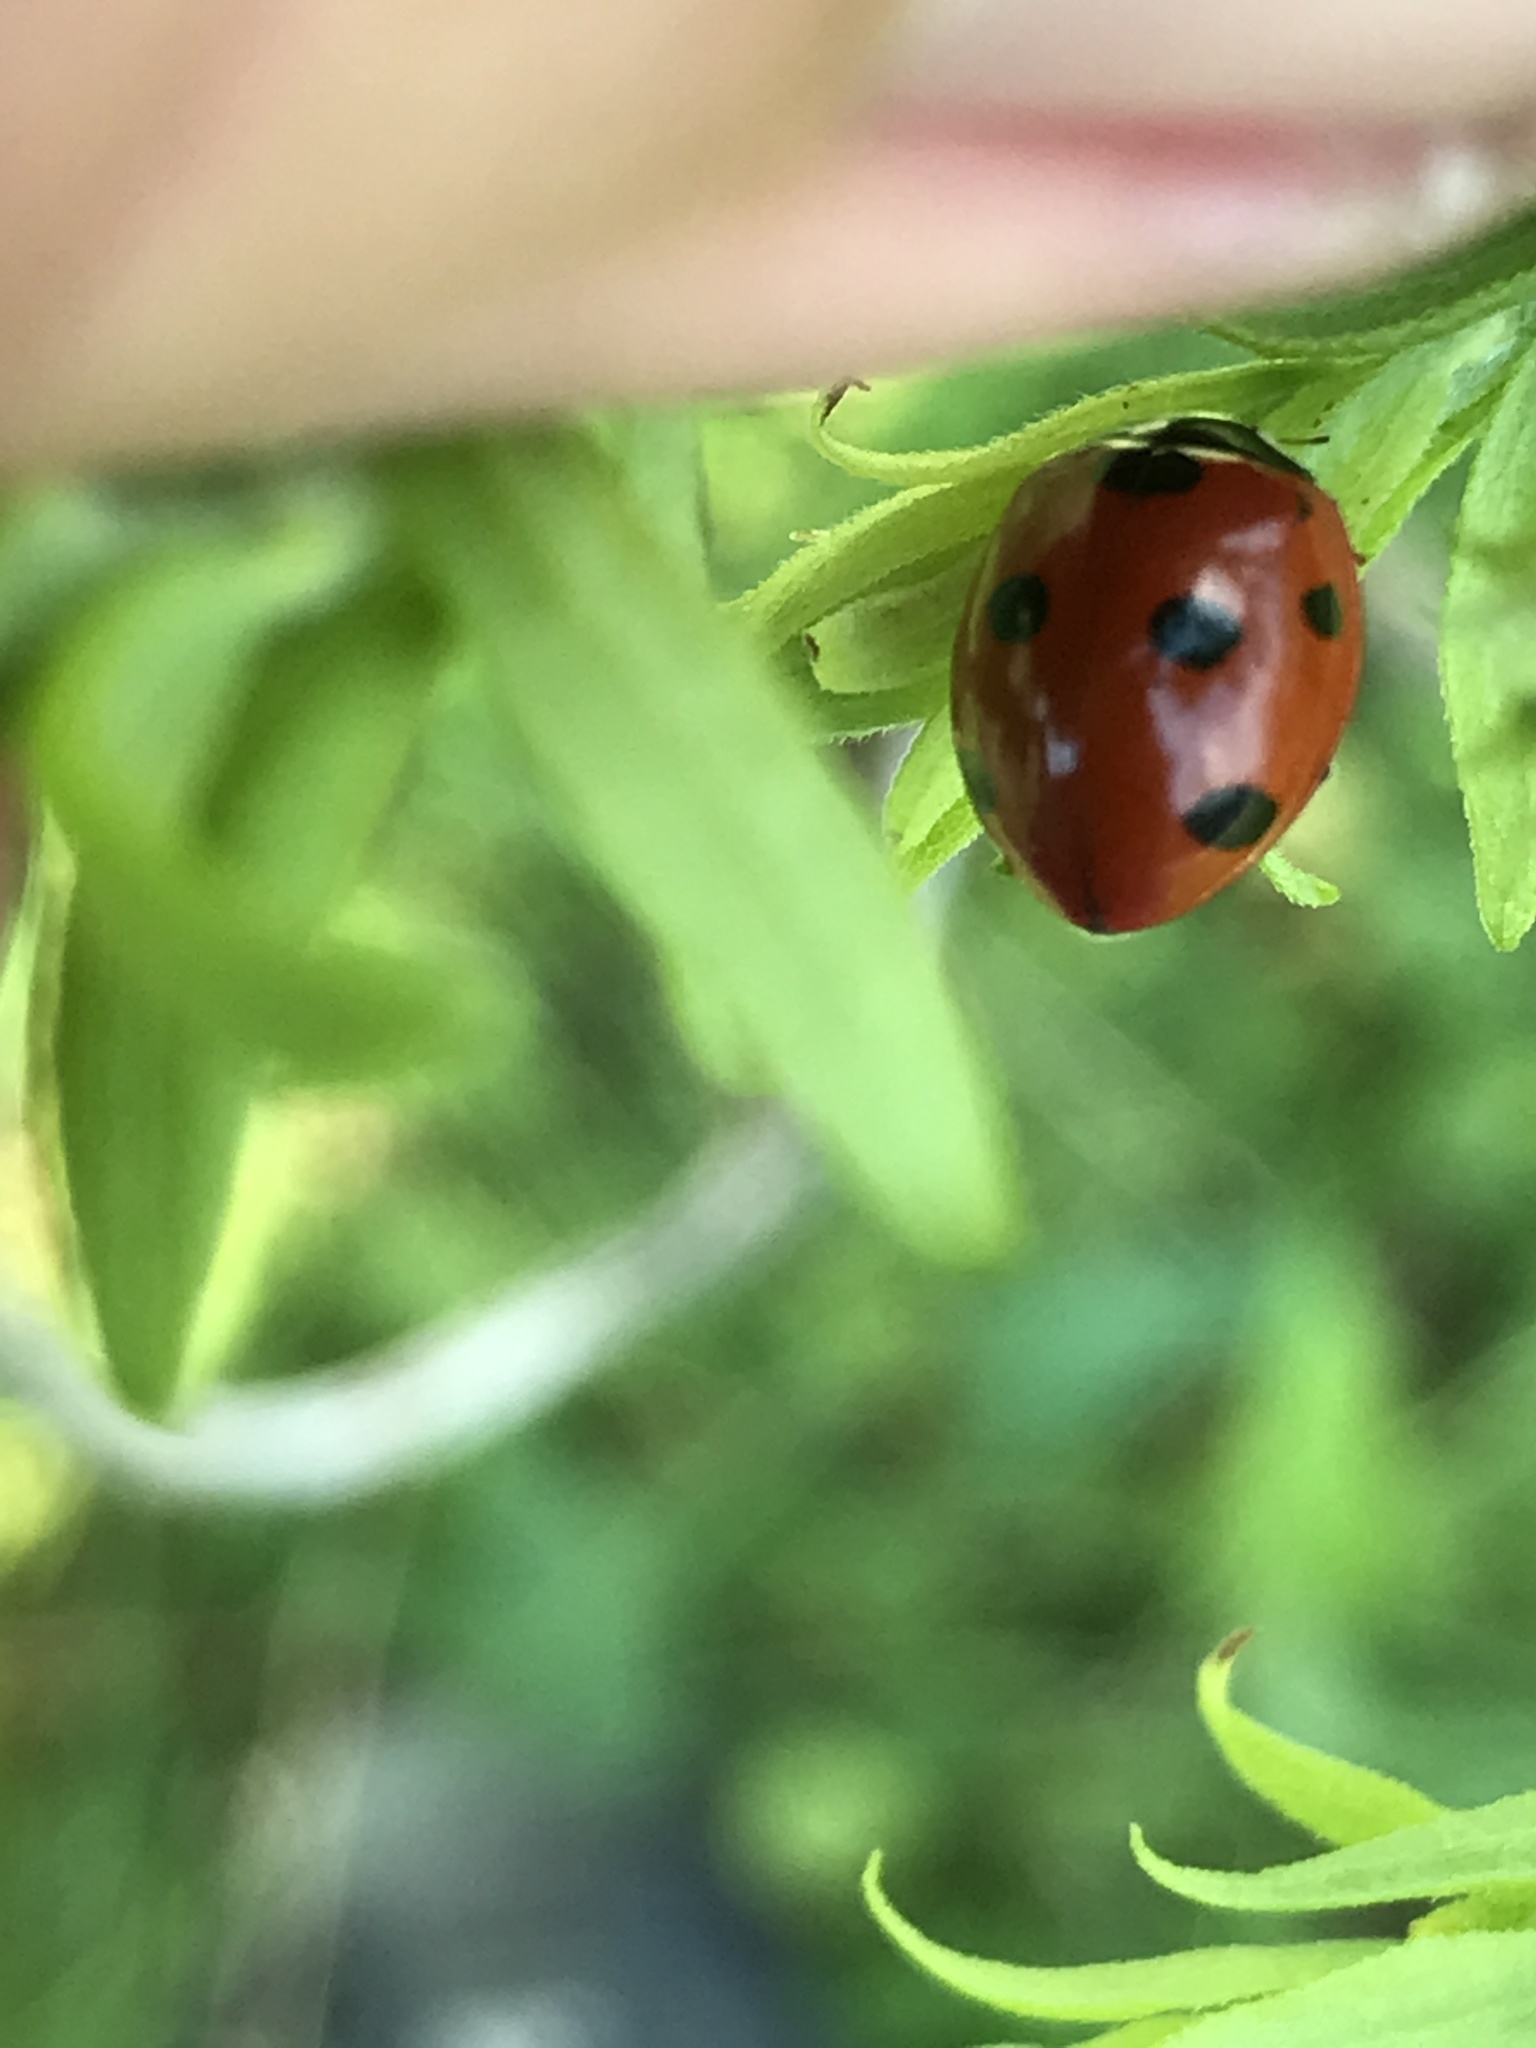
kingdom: Animalia
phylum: Arthropoda
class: Insecta
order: Coleoptera
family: Coccinellidae
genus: Coccinella
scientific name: Coccinella septempunctata
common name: Sevenspotted lady beetle
